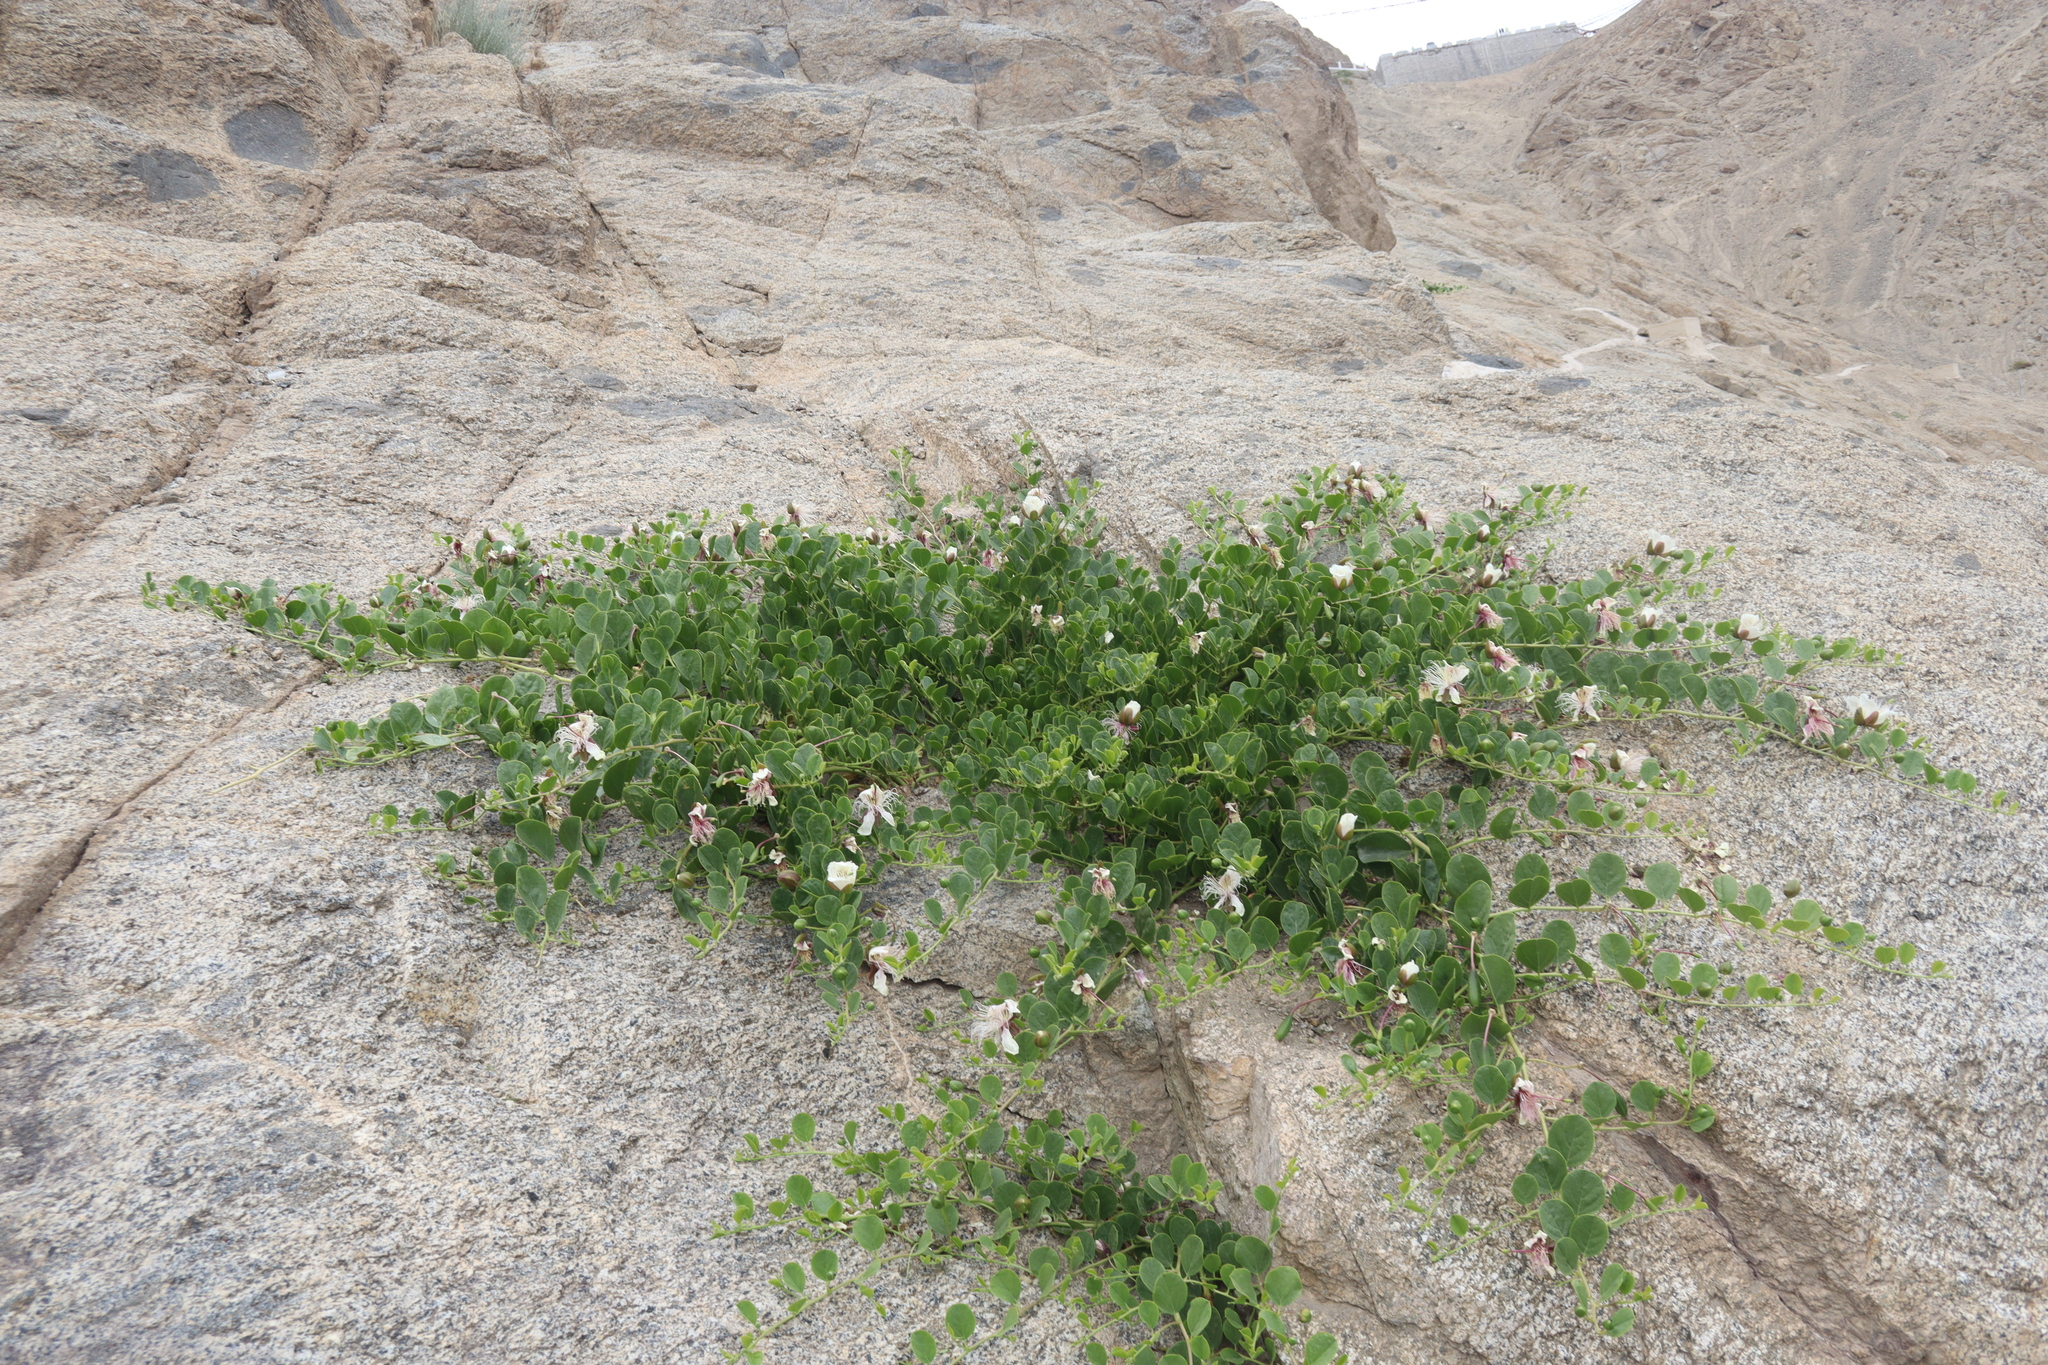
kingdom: Plantae
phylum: Tracheophyta
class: Magnoliopsida
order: Brassicales
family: Capparaceae
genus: Capparis
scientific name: Capparis spinosa
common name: Caper
